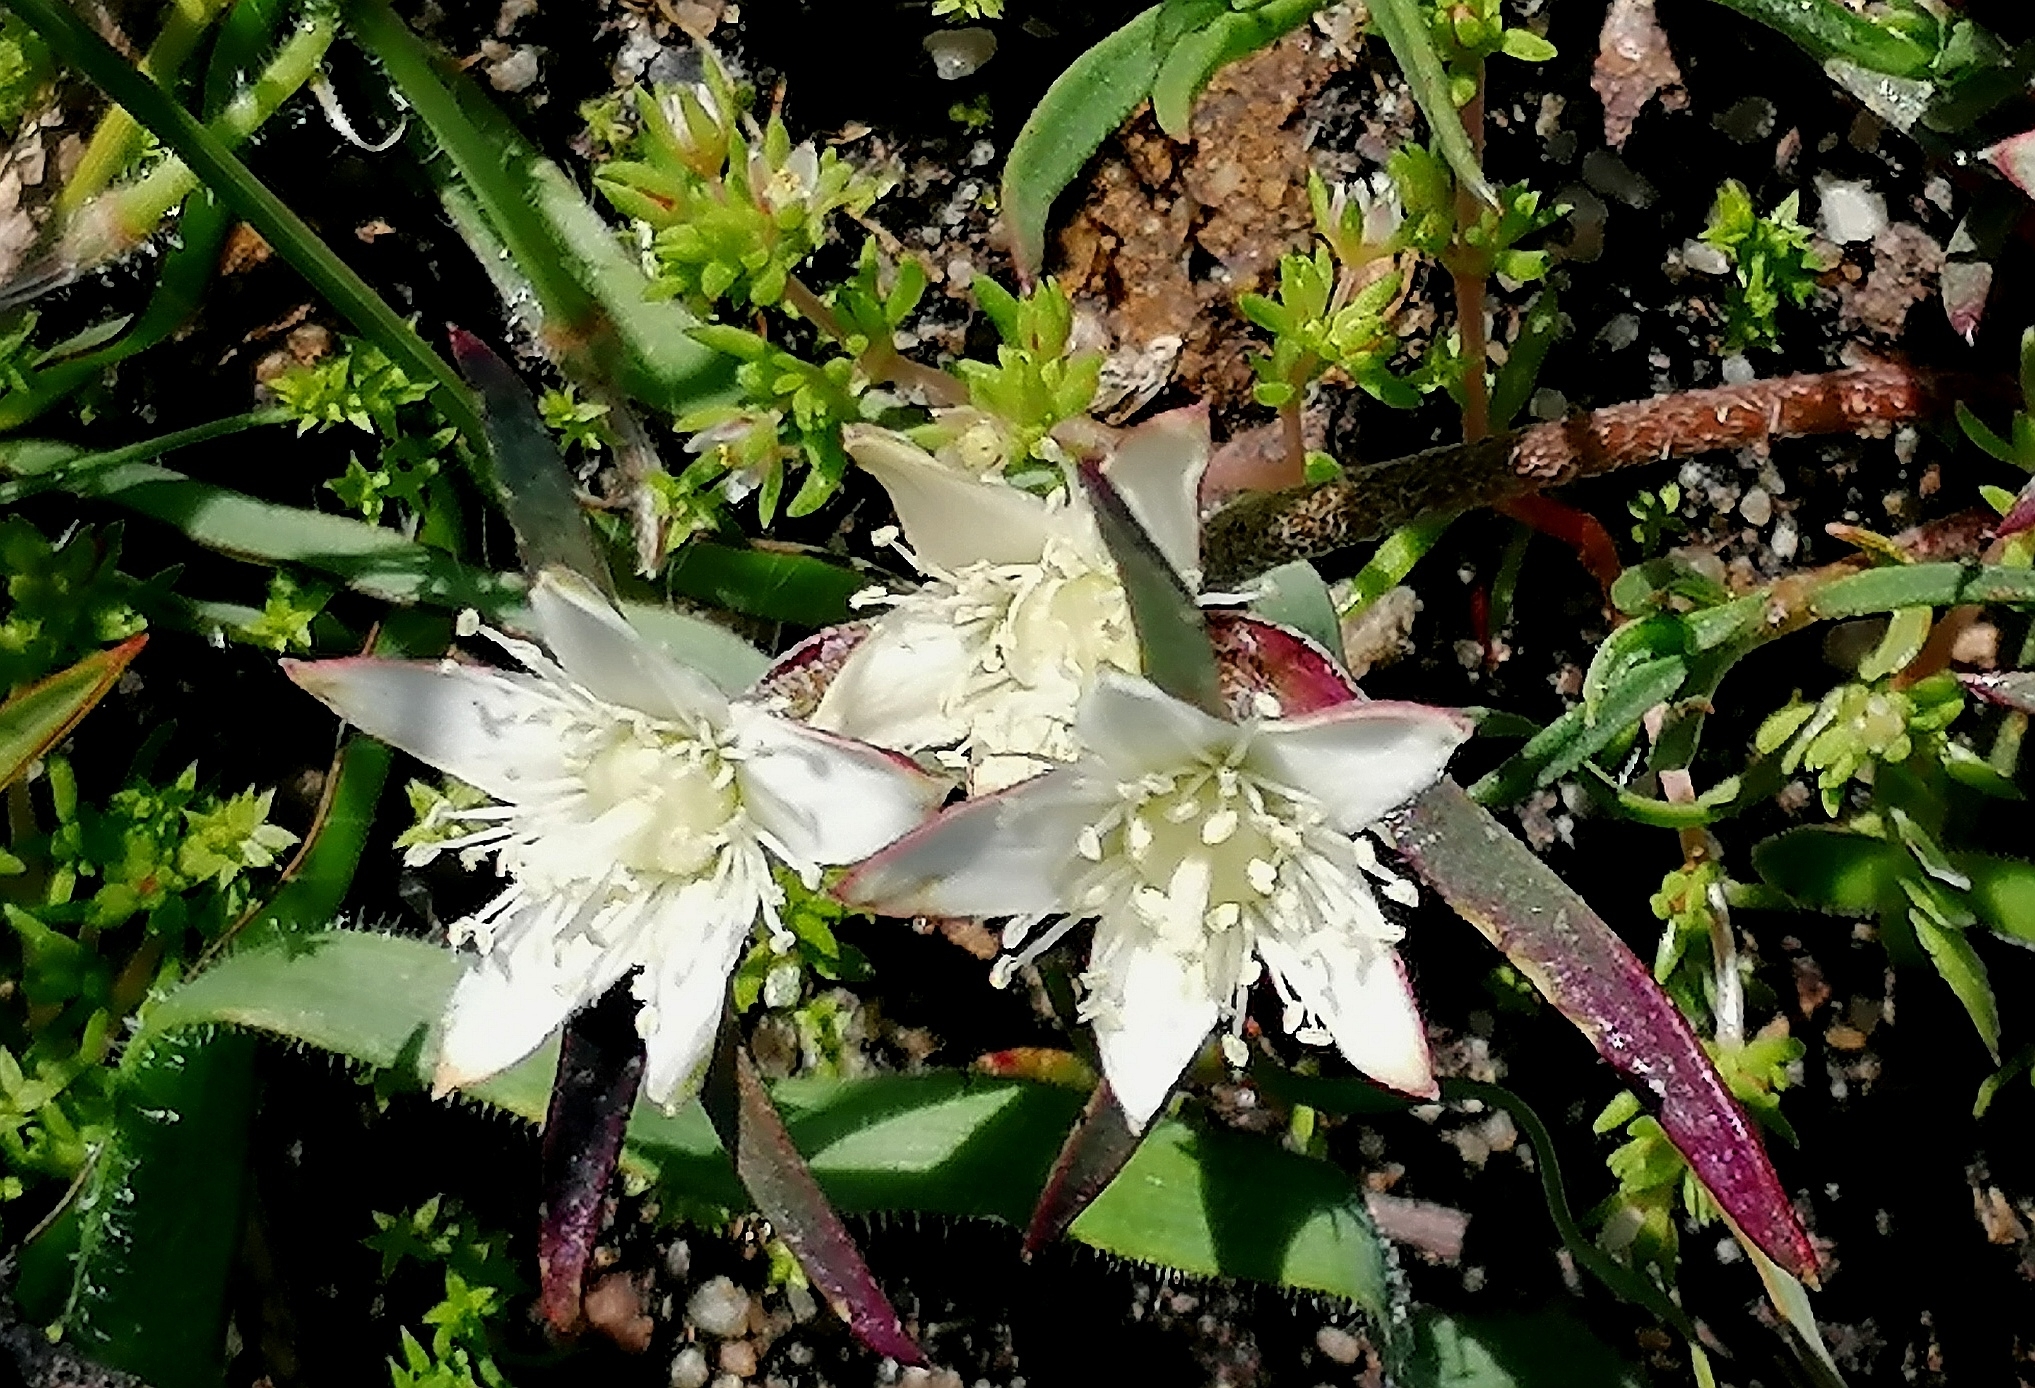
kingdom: Plantae
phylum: Tracheophyta
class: Magnoliopsida
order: Caryophyllales
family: Aizoaceae
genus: Aizoon
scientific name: Aizoon sarmentosum
